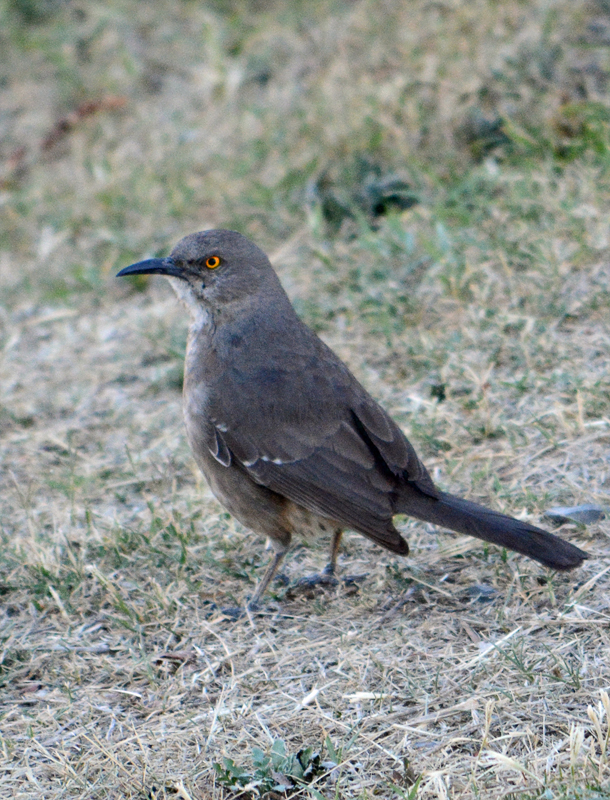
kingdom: Animalia
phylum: Chordata
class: Aves
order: Passeriformes
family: Mimidae
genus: Toxostoma
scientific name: Toxostoma curvirostre
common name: Curve-billed thrasher
